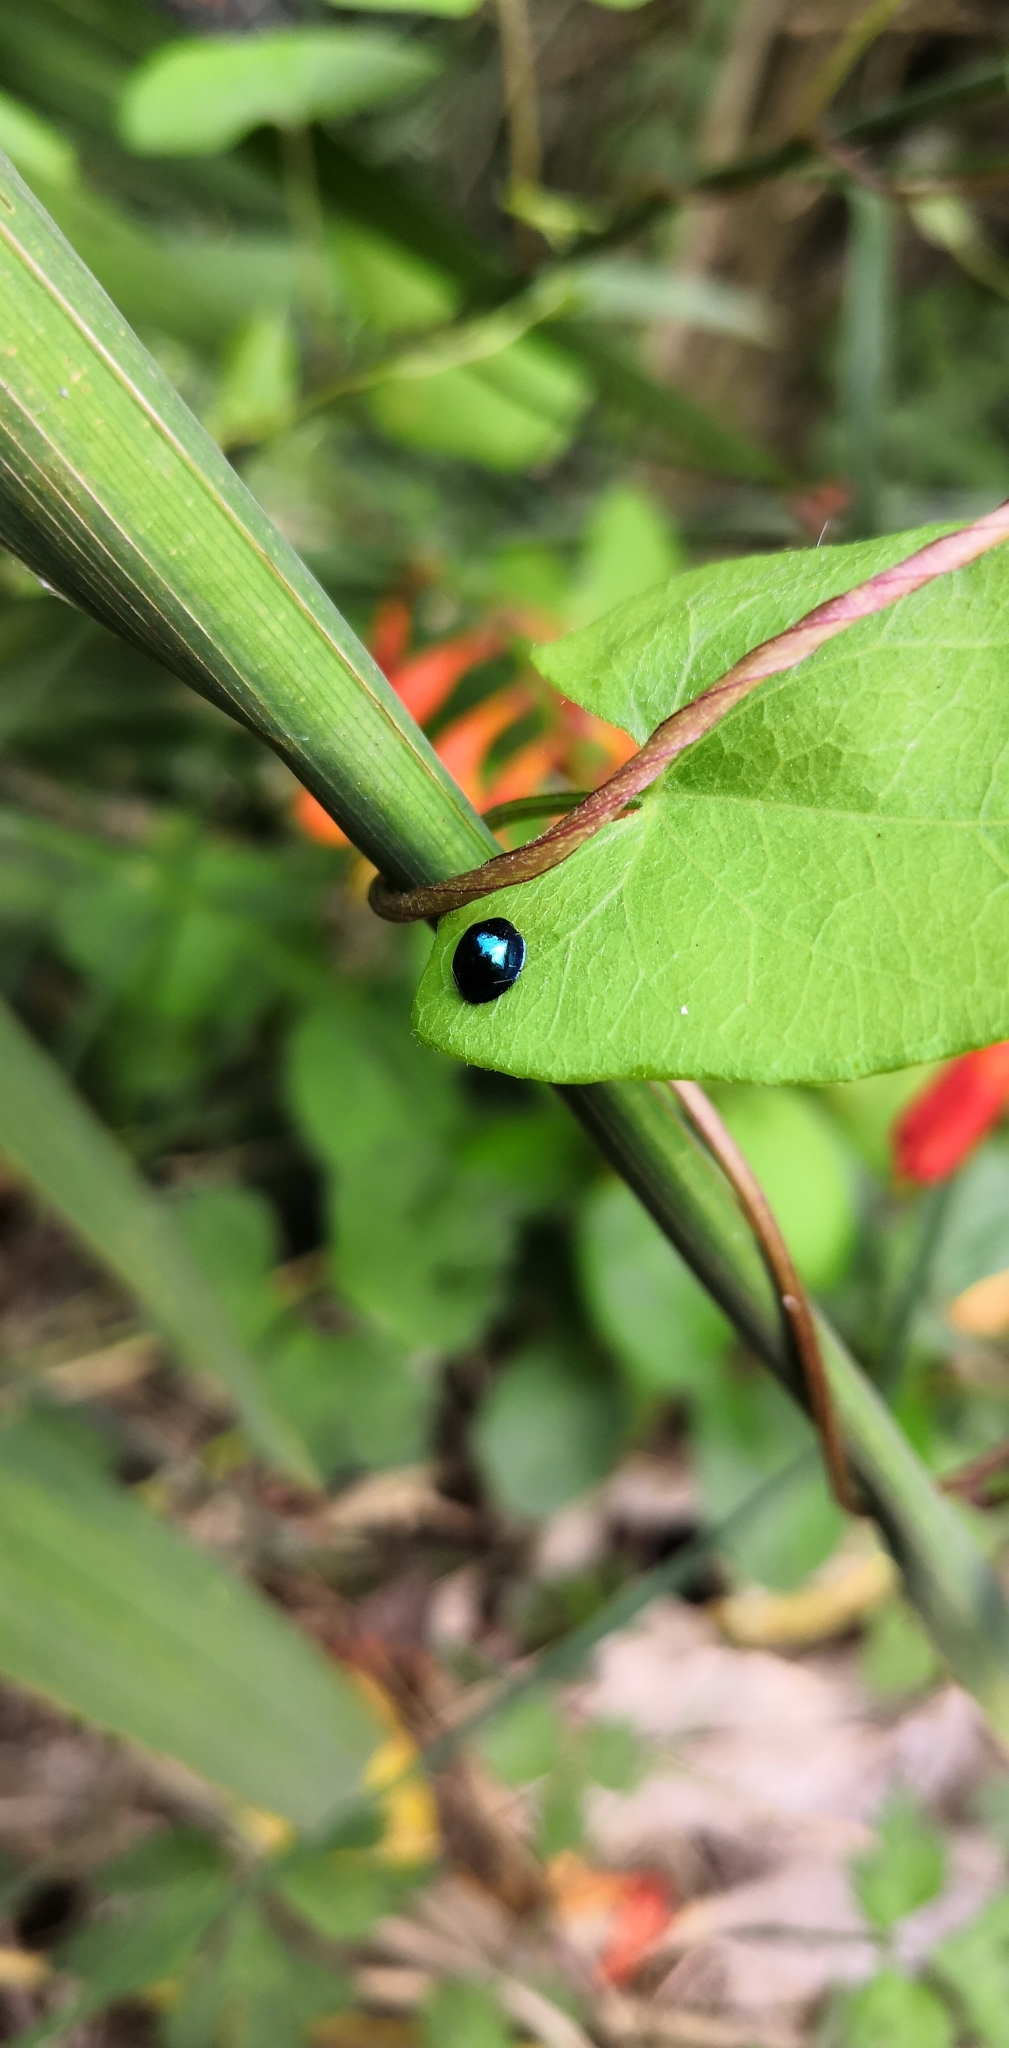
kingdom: Animalia
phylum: Arthropoda
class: Insecta
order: Coleoptera
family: Coccinellidae
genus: Halmus
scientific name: Halmus chalybeus
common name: Steel blue ladybird beetle
